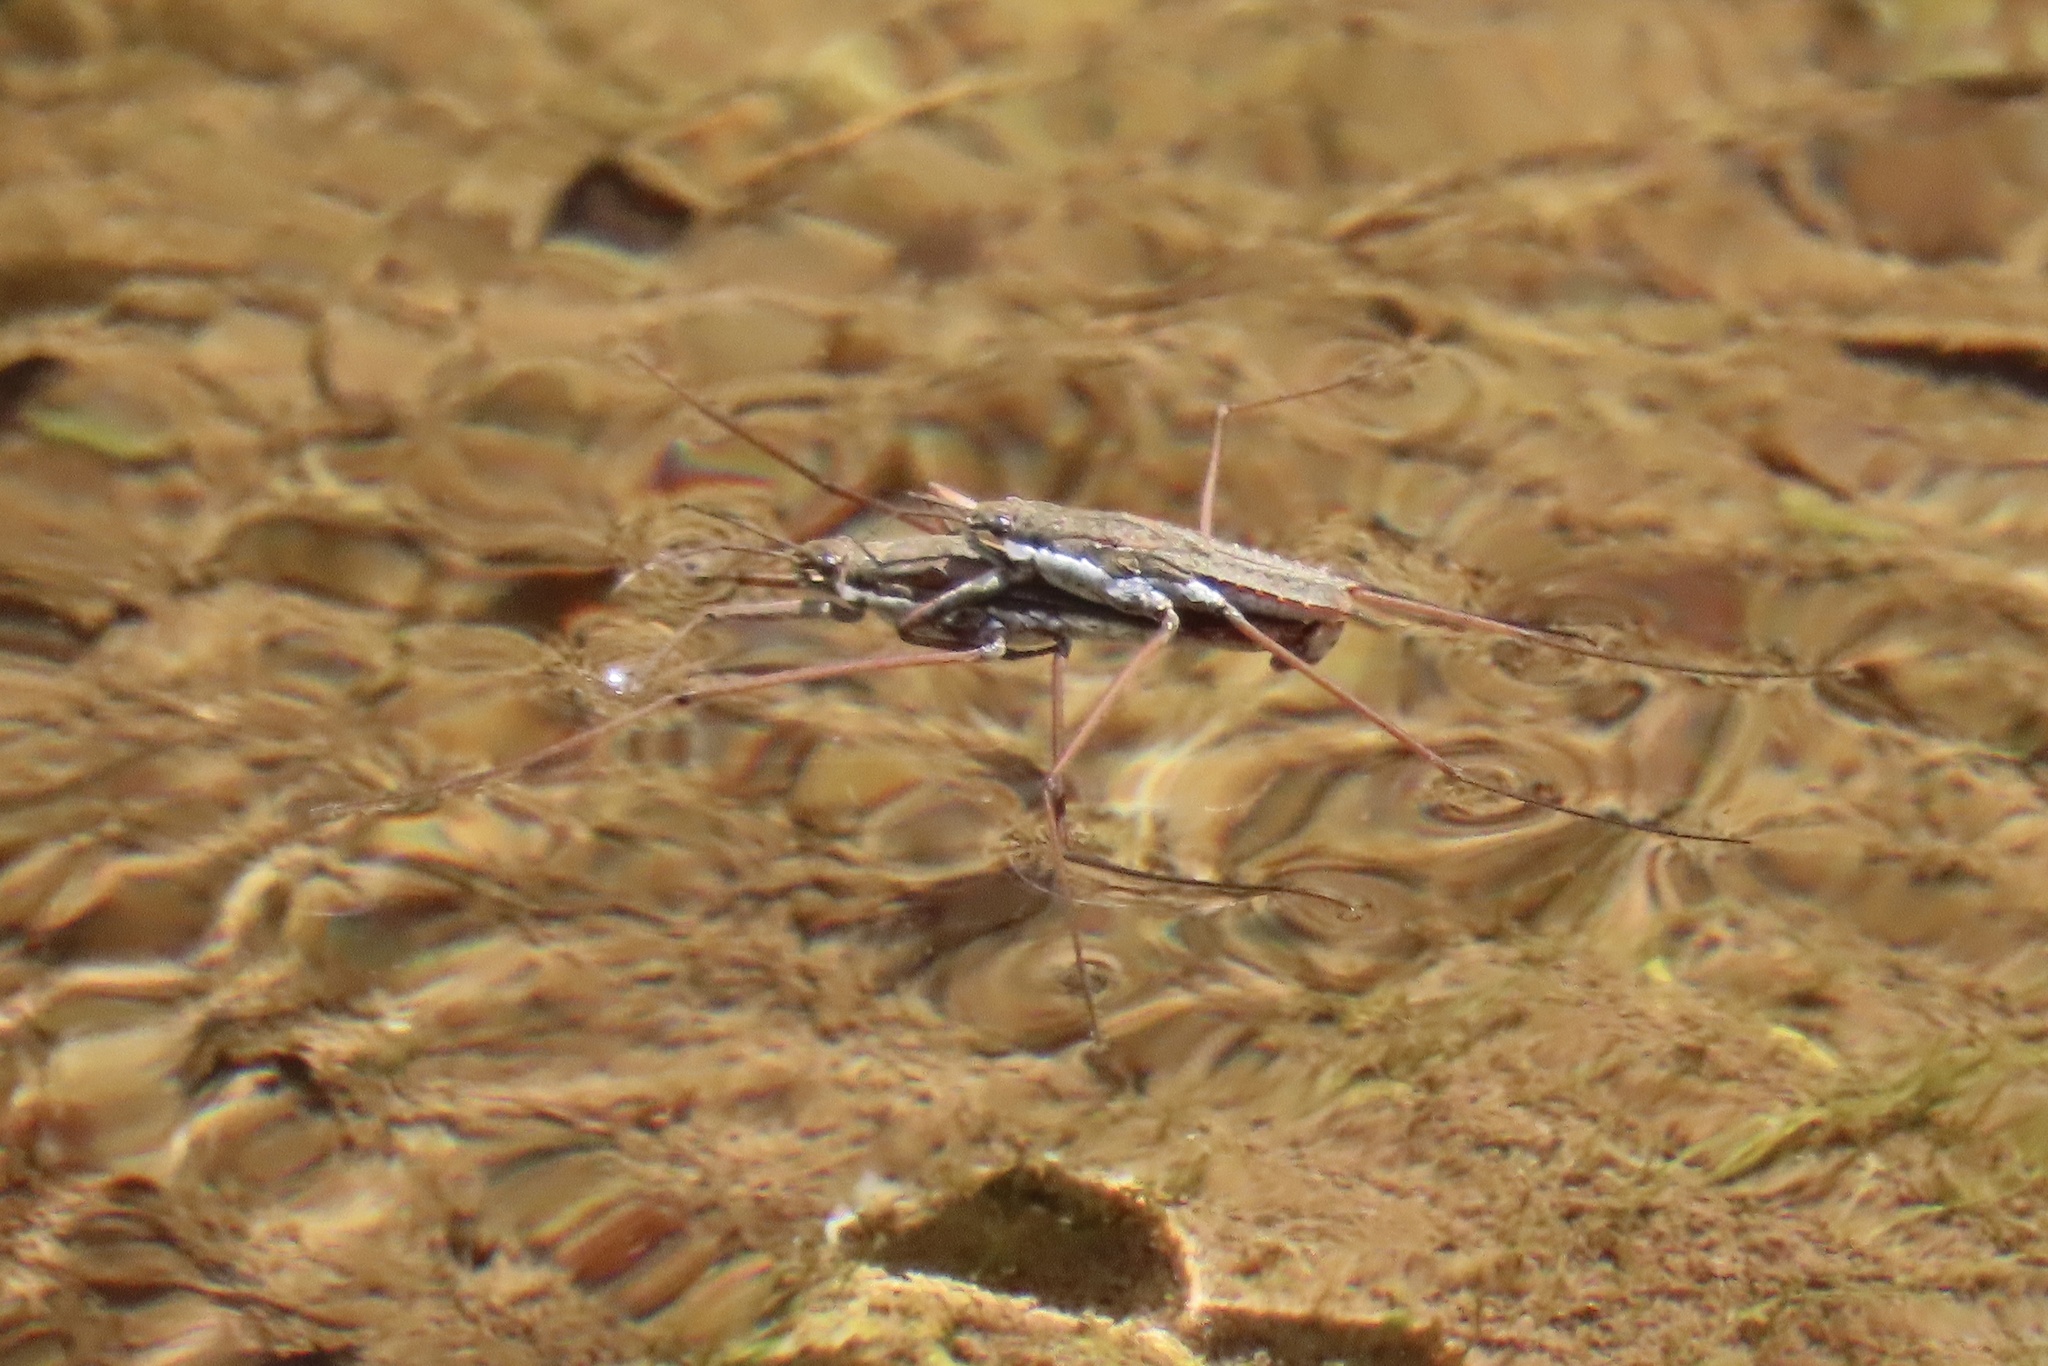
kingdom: Animalia
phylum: Arthropoda
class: Insecta
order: Hemiptera
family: Gerridae
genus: Aquarius
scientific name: Aquarius remigis
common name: Common water strider
